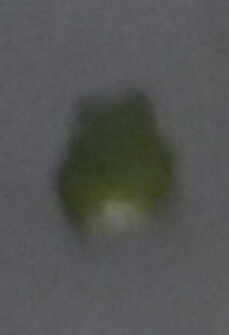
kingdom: Animalia
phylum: Chordata
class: Amphibia
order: Anura
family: Hylidae
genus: Hyla
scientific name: Hyla
